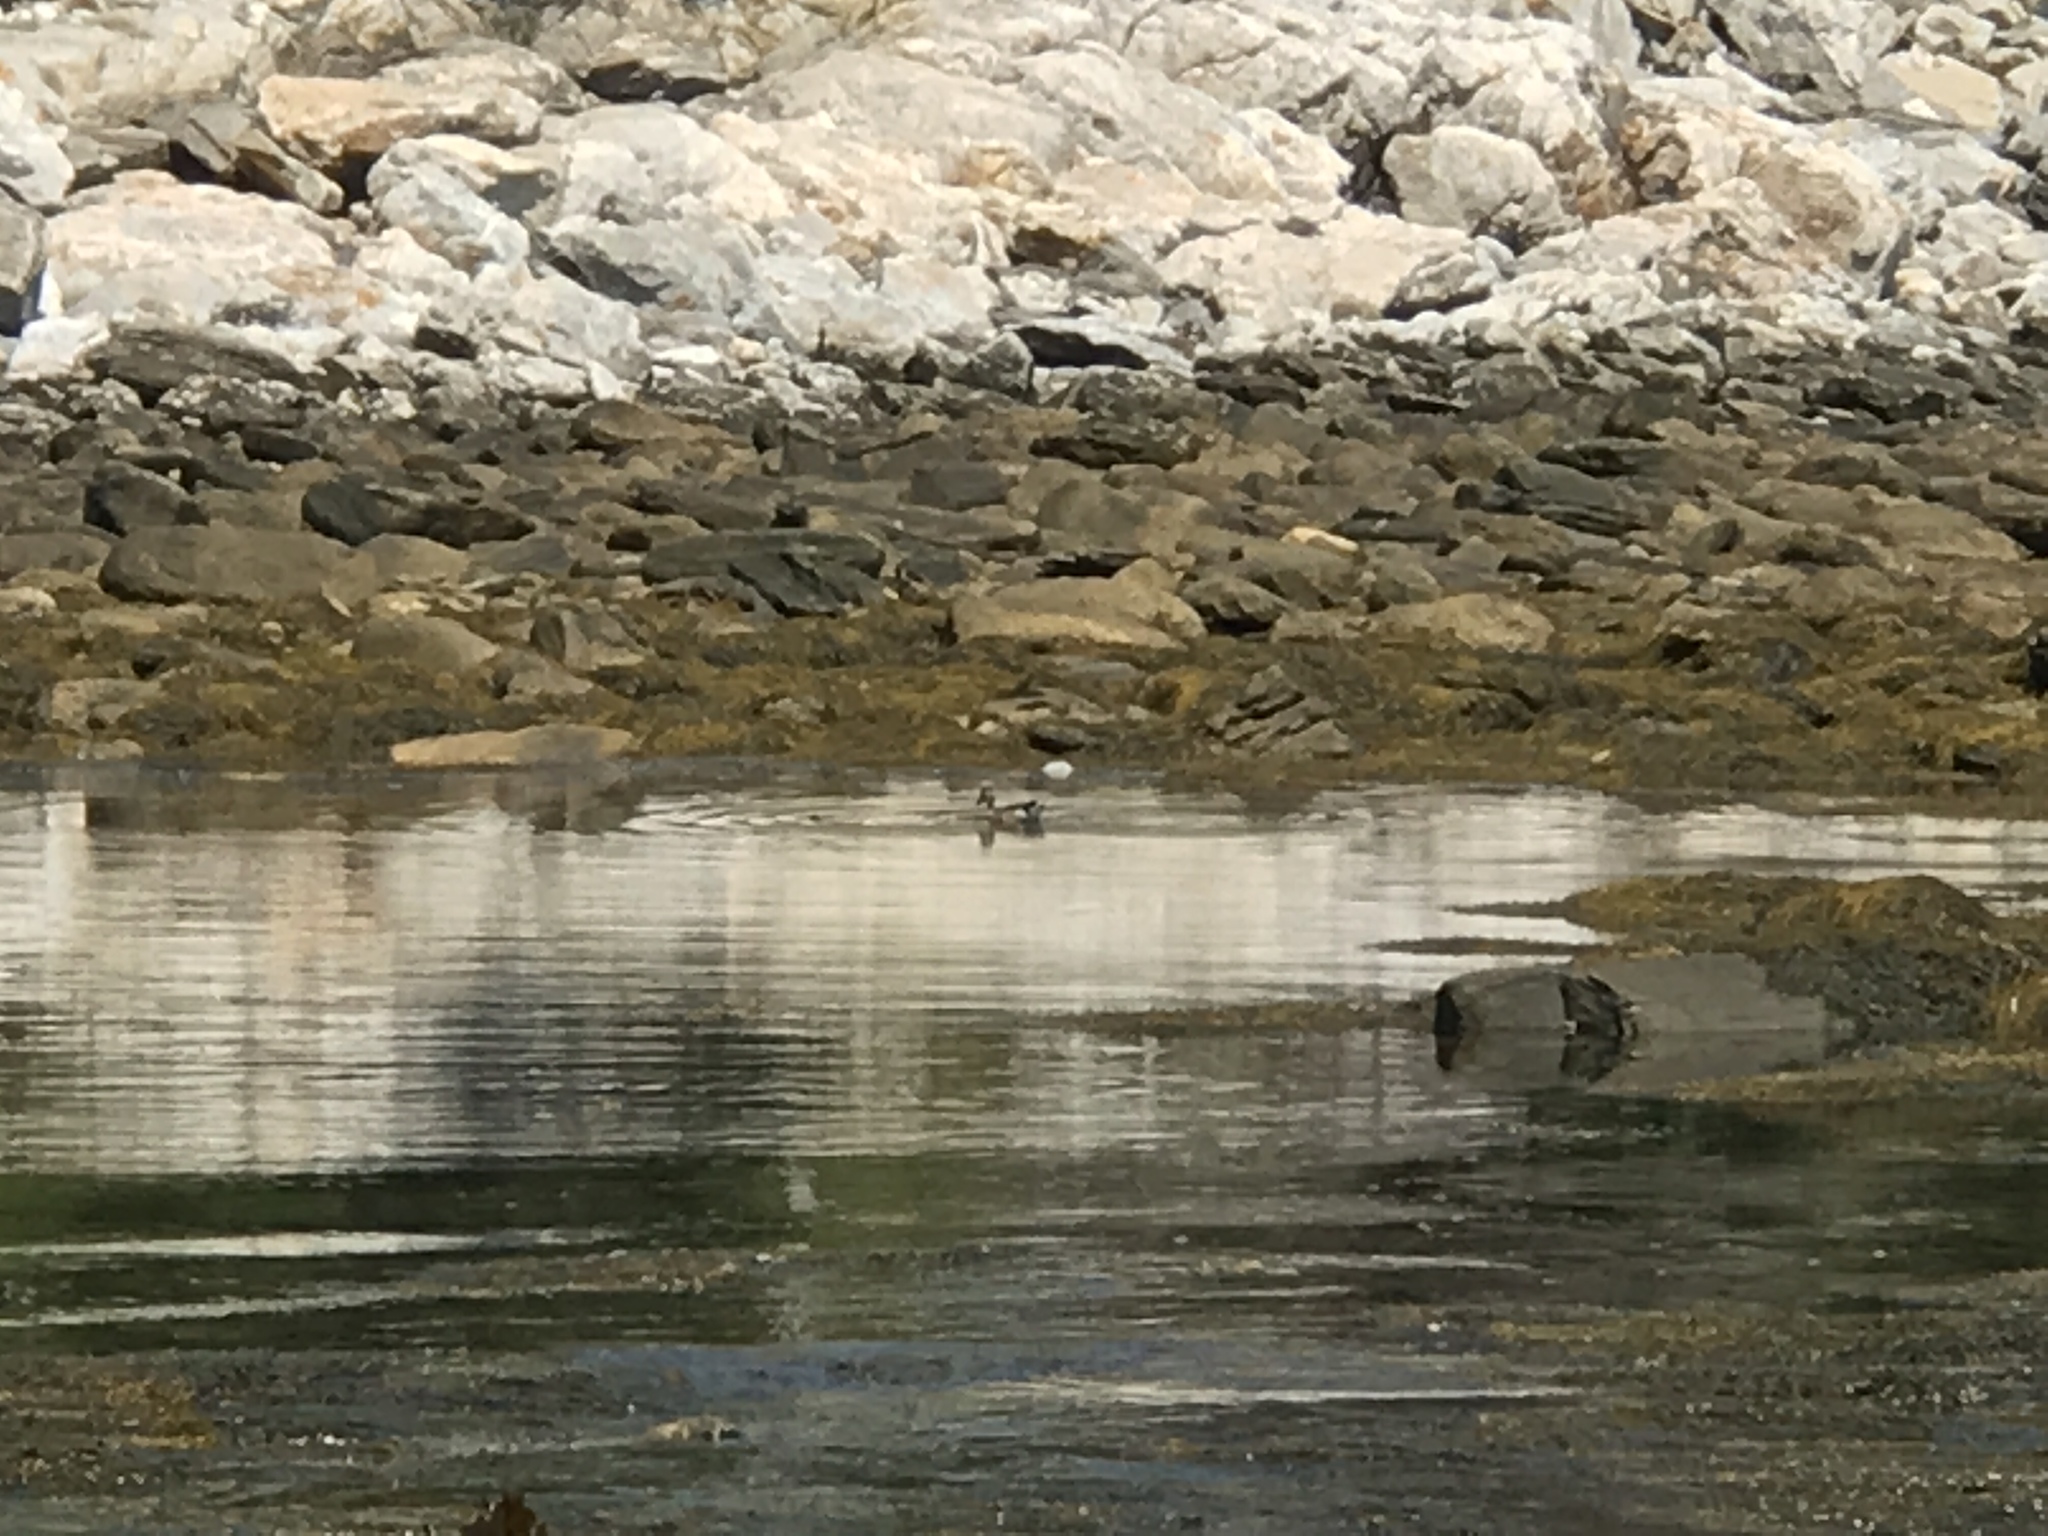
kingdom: Animalia
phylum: Chordata
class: Aves
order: Anseriformes
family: Anatidae
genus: Anas
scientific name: Anas platyrhynchos
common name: Mallard
